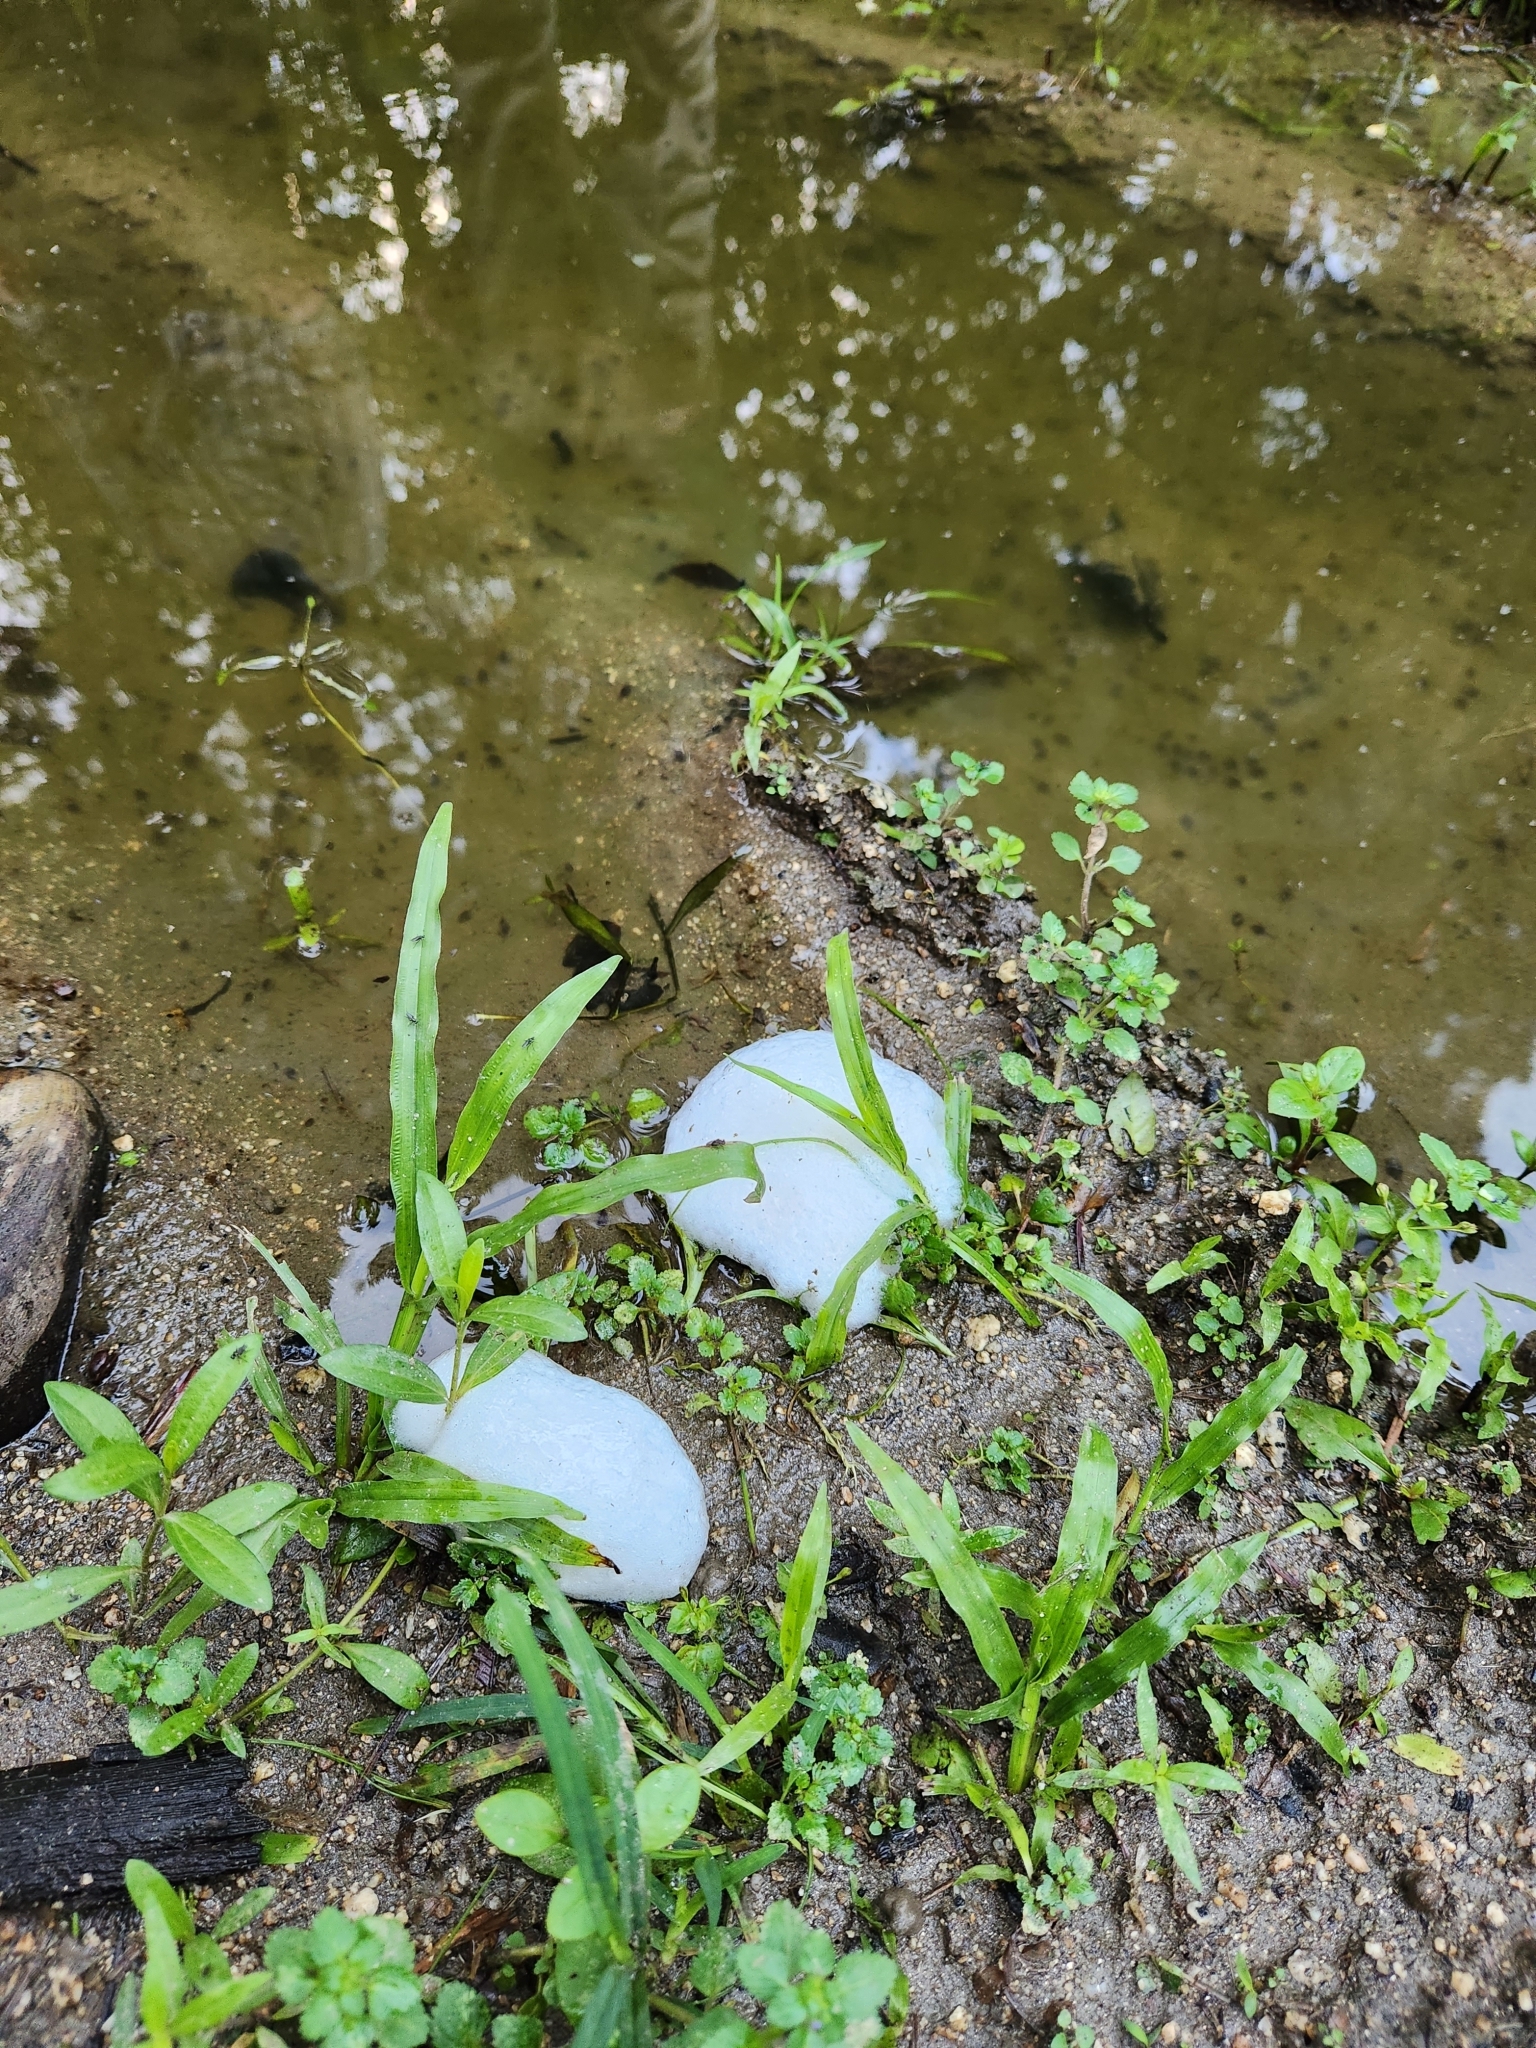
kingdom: Animalia
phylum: Chordata
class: Amphibia
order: Anura
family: Leptodactylidae
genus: Engystomops
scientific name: Engystomops pustulosus
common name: Tungara frog
